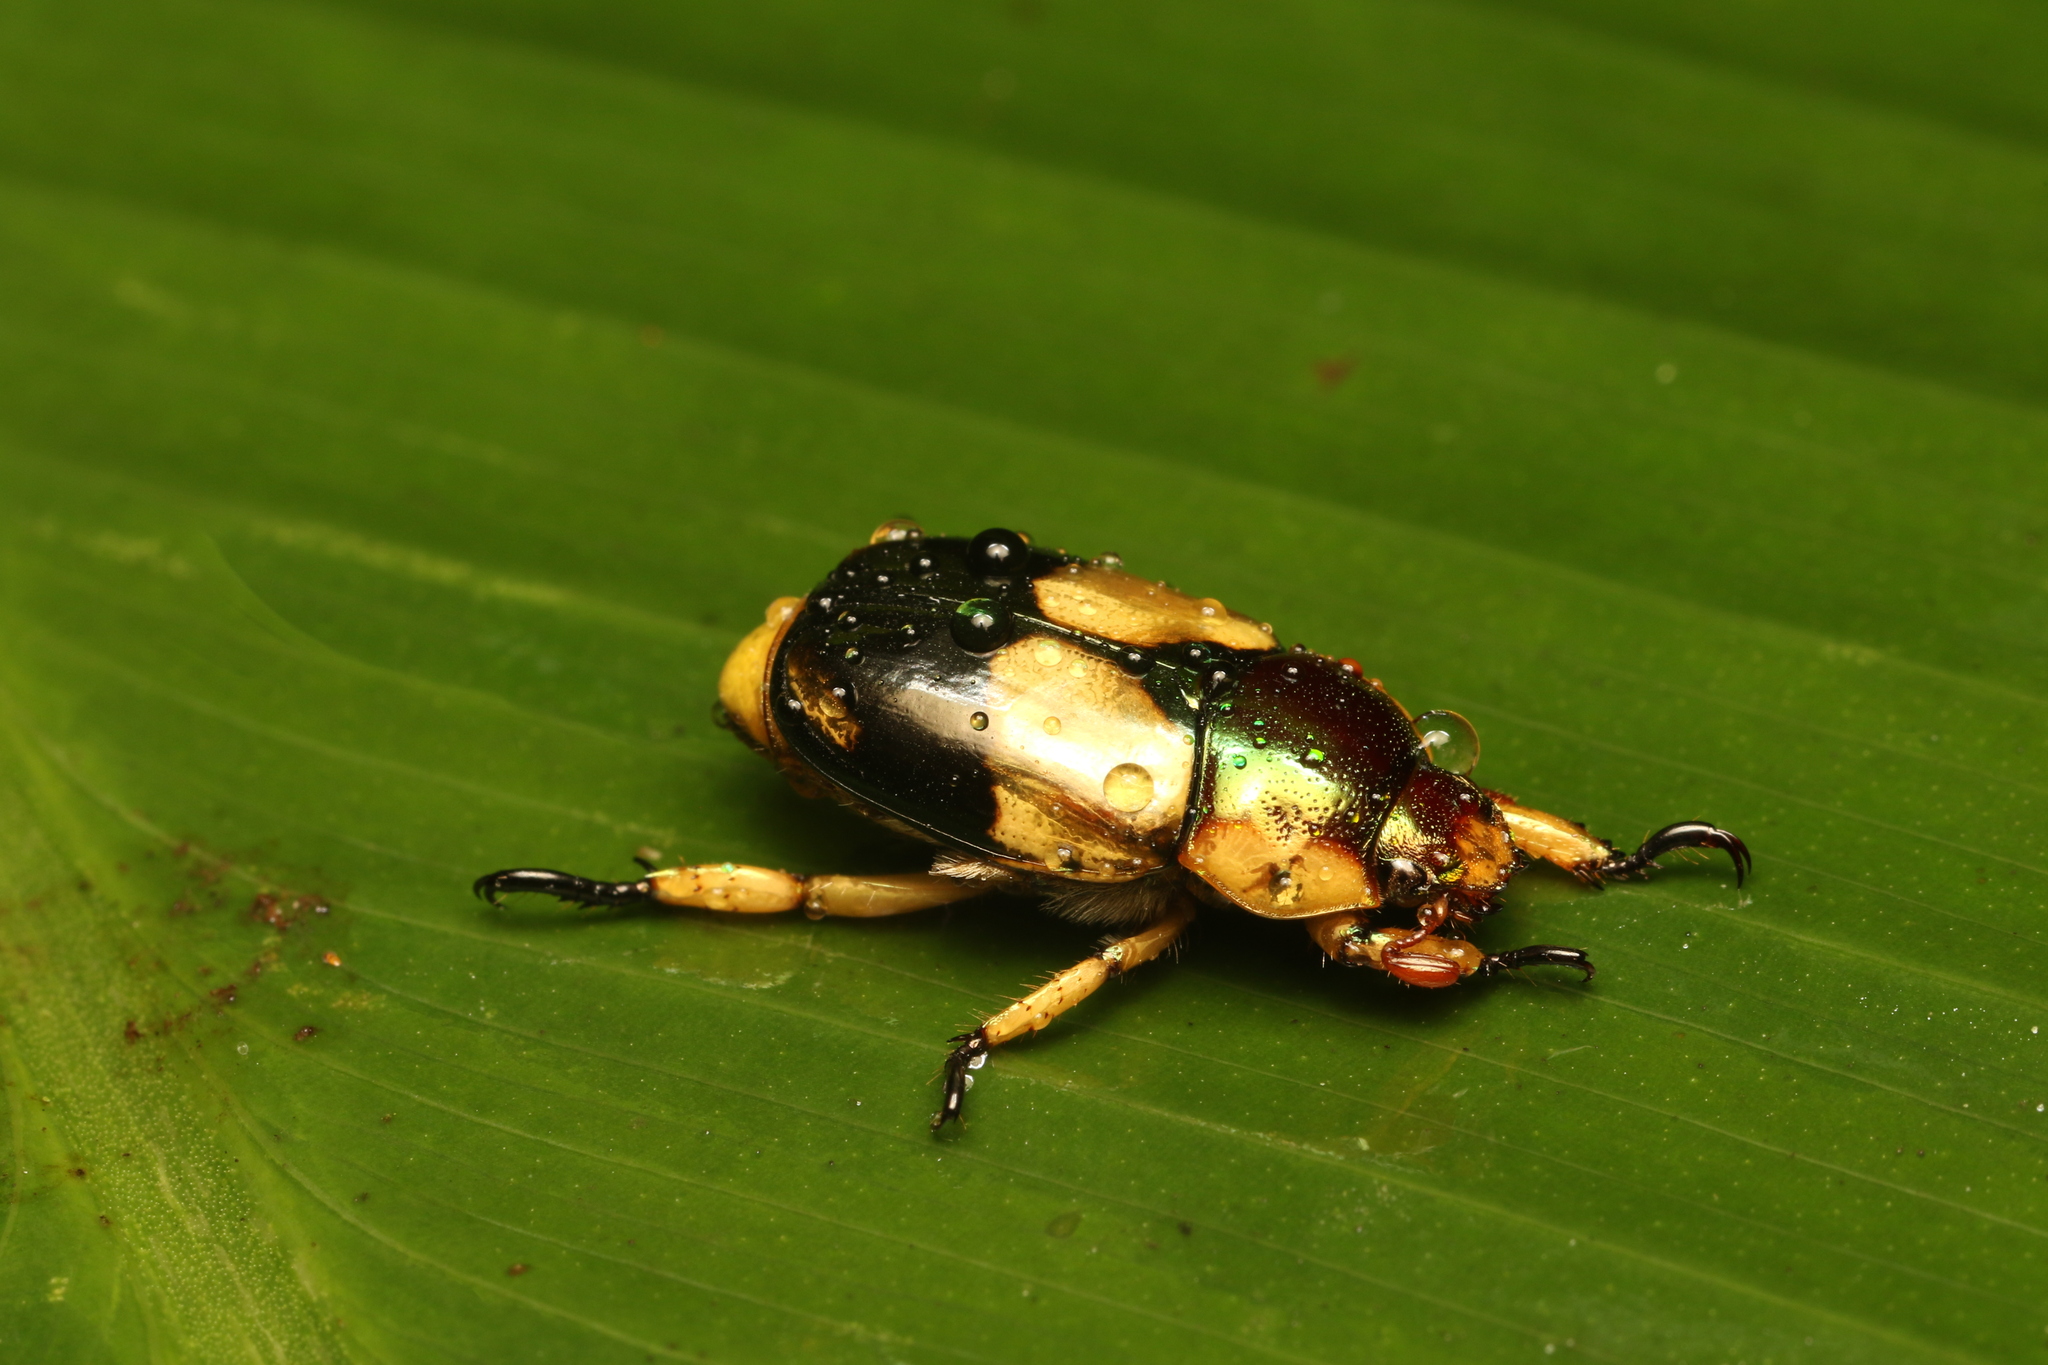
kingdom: Animalia
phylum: Arthropoda
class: Insecta
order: Coleoptera
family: Scarabaeidae
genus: Pelidnota
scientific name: Pelidnota pulchella
